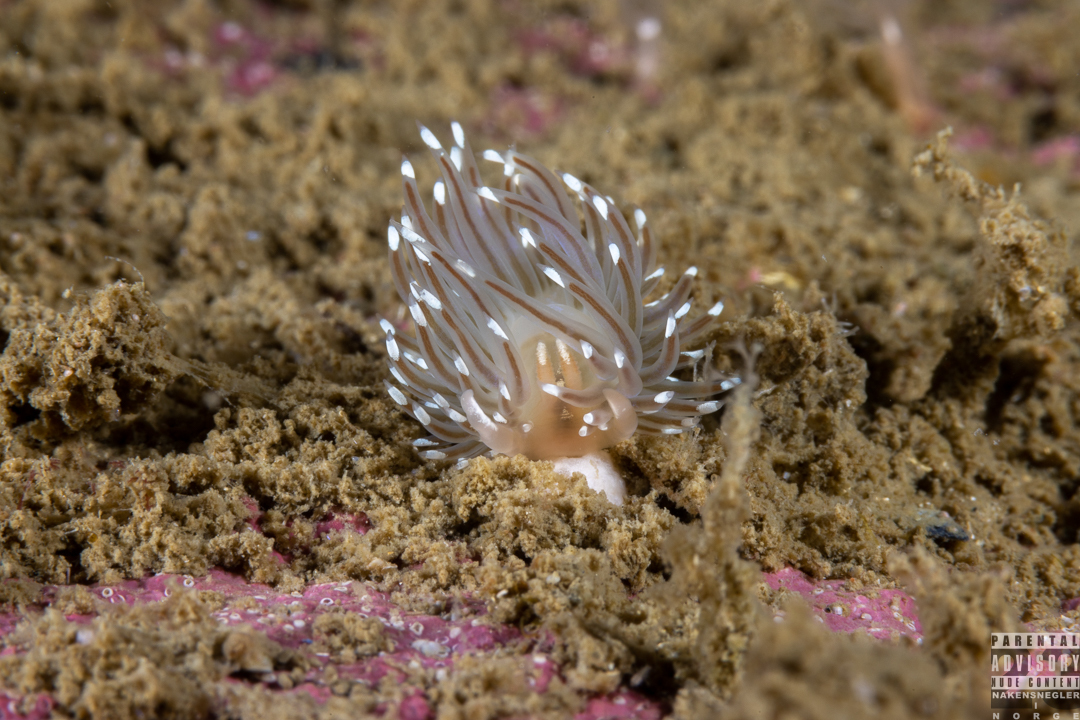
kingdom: Animalia
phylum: Mollusca
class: Gastropoda
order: Nudibranchia
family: Facelinidae
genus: Facelina
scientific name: Facelina bostoniensis
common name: Boston facelina
